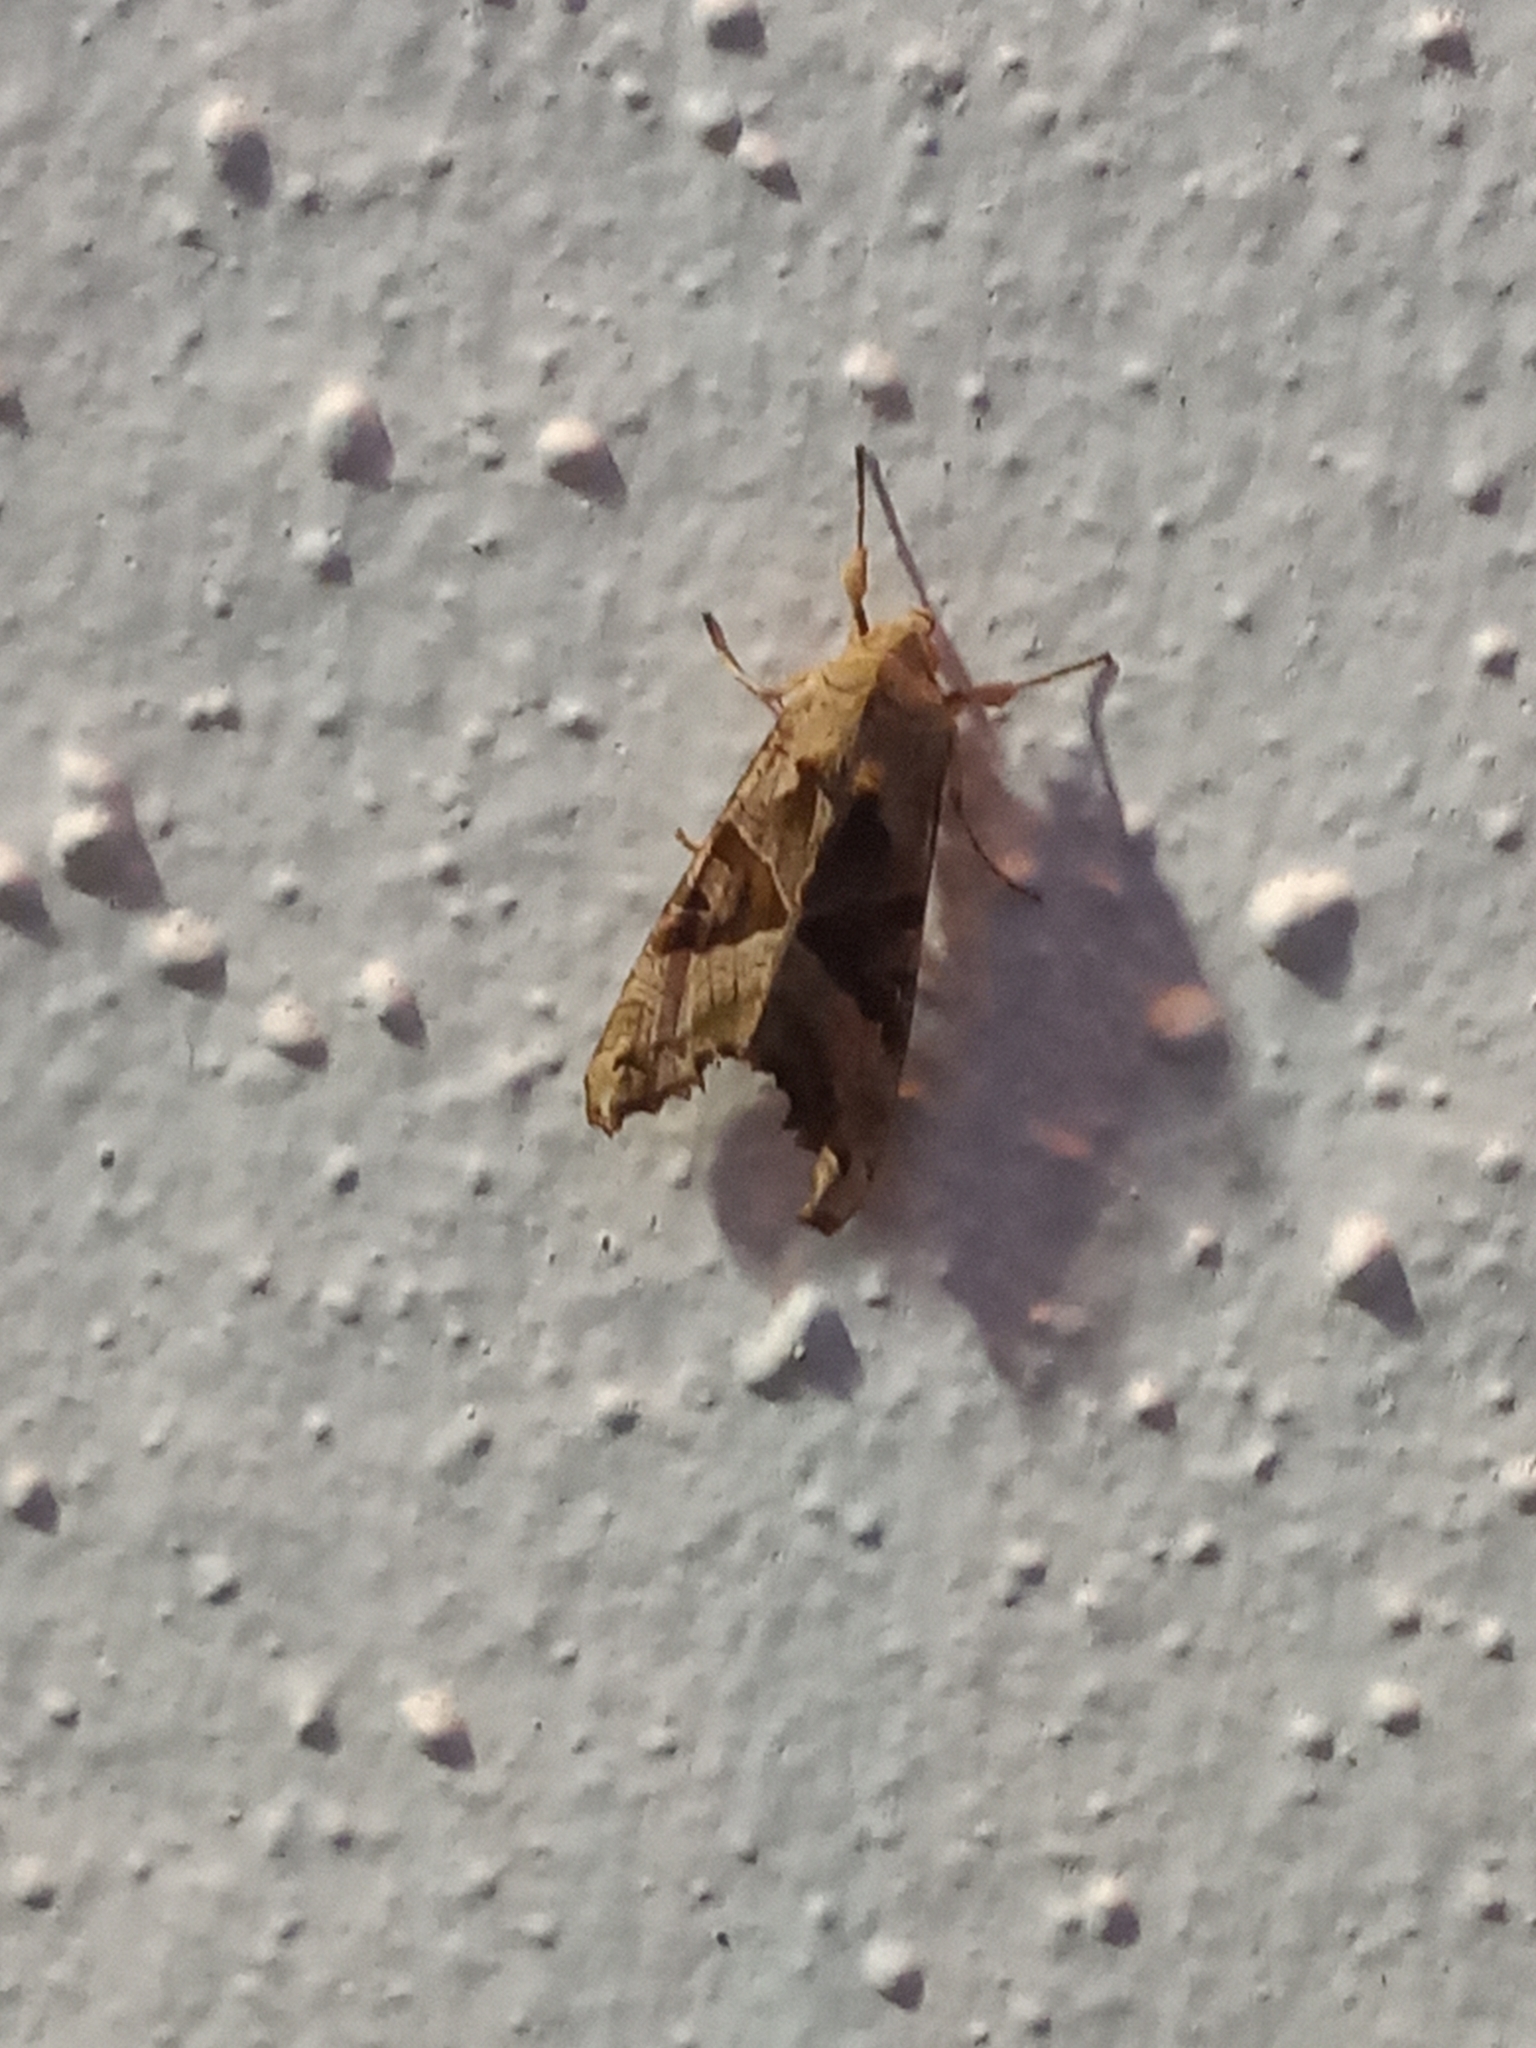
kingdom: Animalia
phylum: Arthropoda
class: Insecta
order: Lepidoptera
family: Noctuidae
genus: Phlogophora
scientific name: Phlogophora meticulosa
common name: Angle shades
